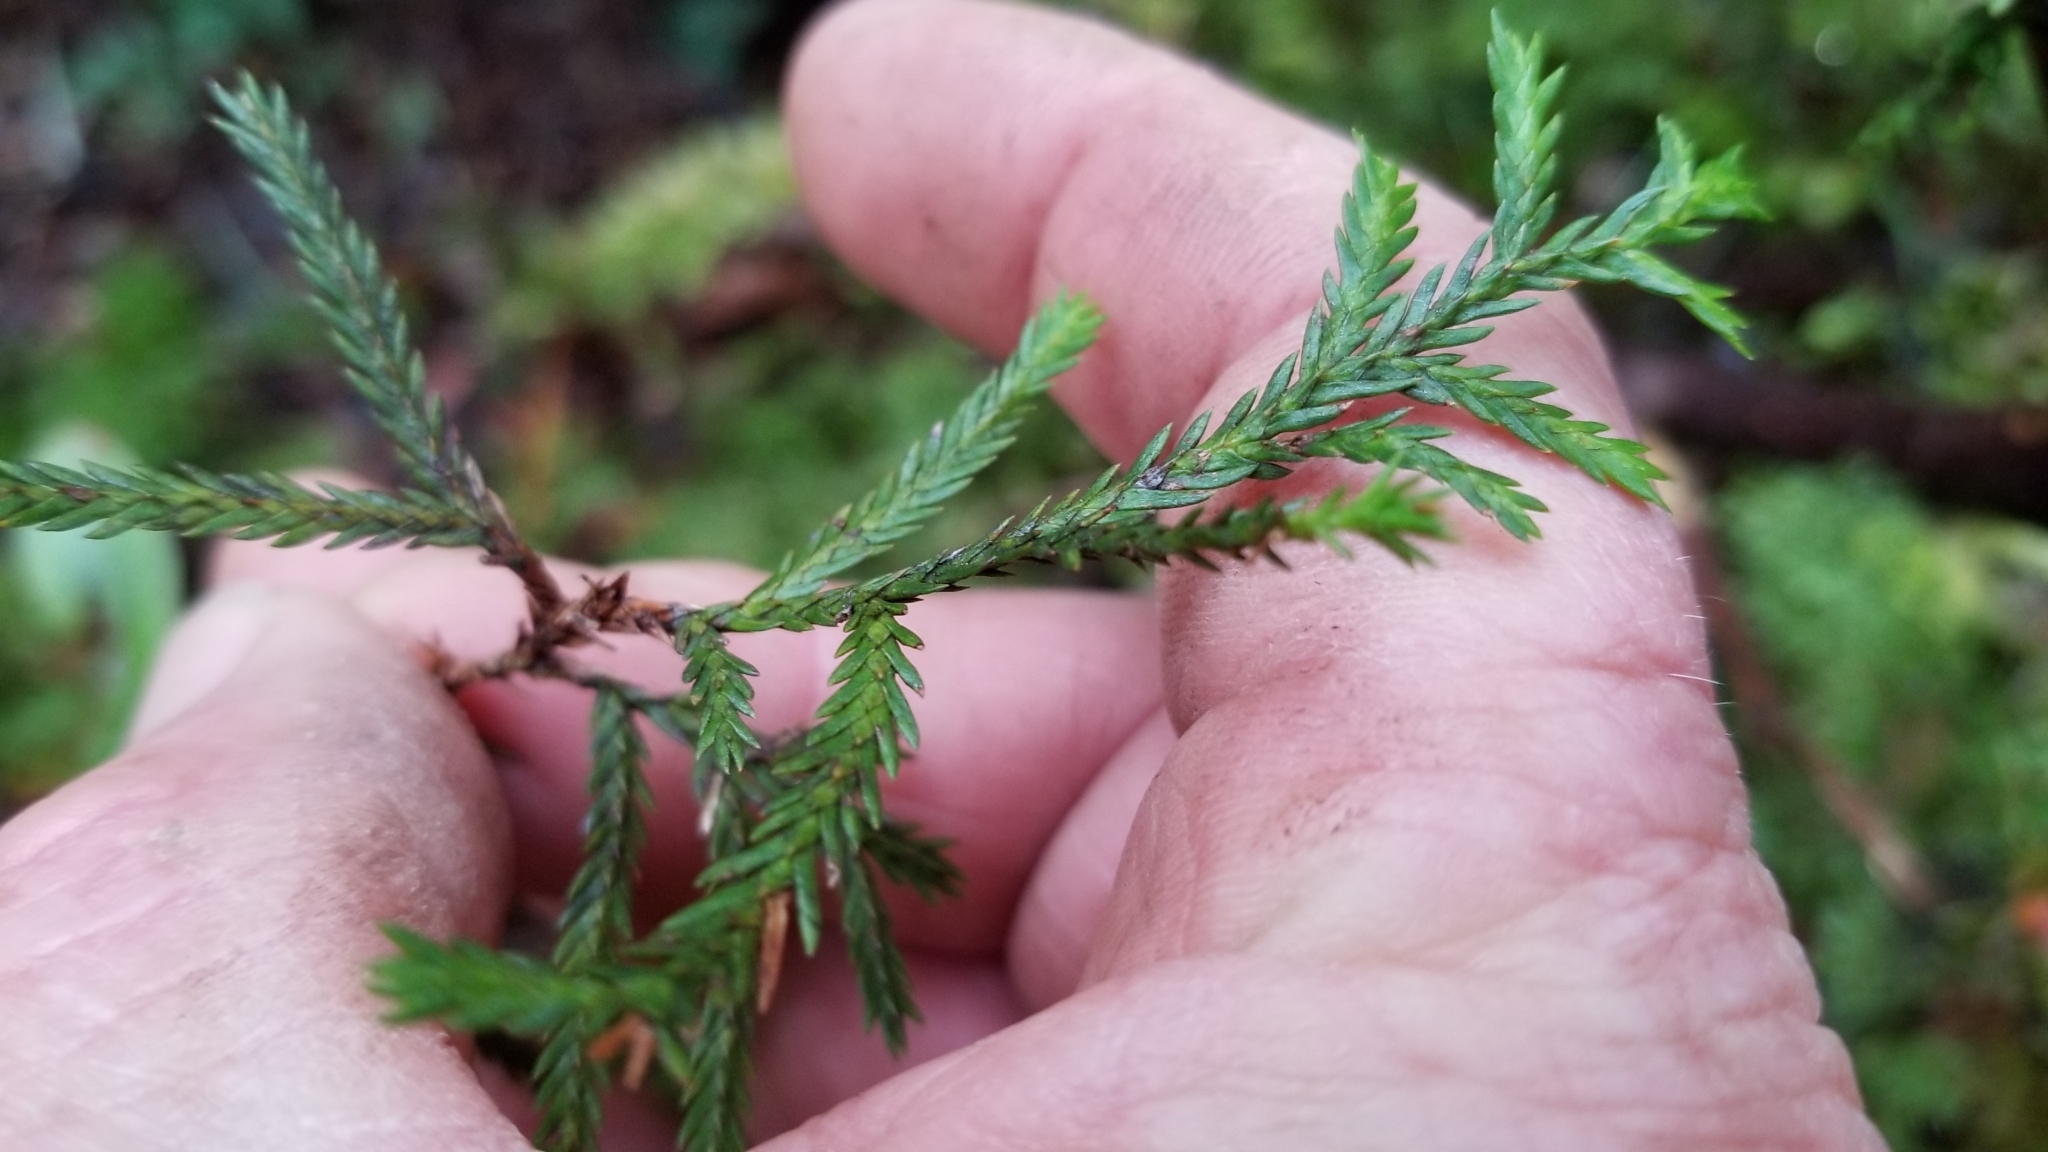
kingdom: Plantae
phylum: Tracheophyta
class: Pinopsida
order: Pinales
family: Cupressaceae
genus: Libocedrus
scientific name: Libocedrus bidwillii
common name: Cedar
